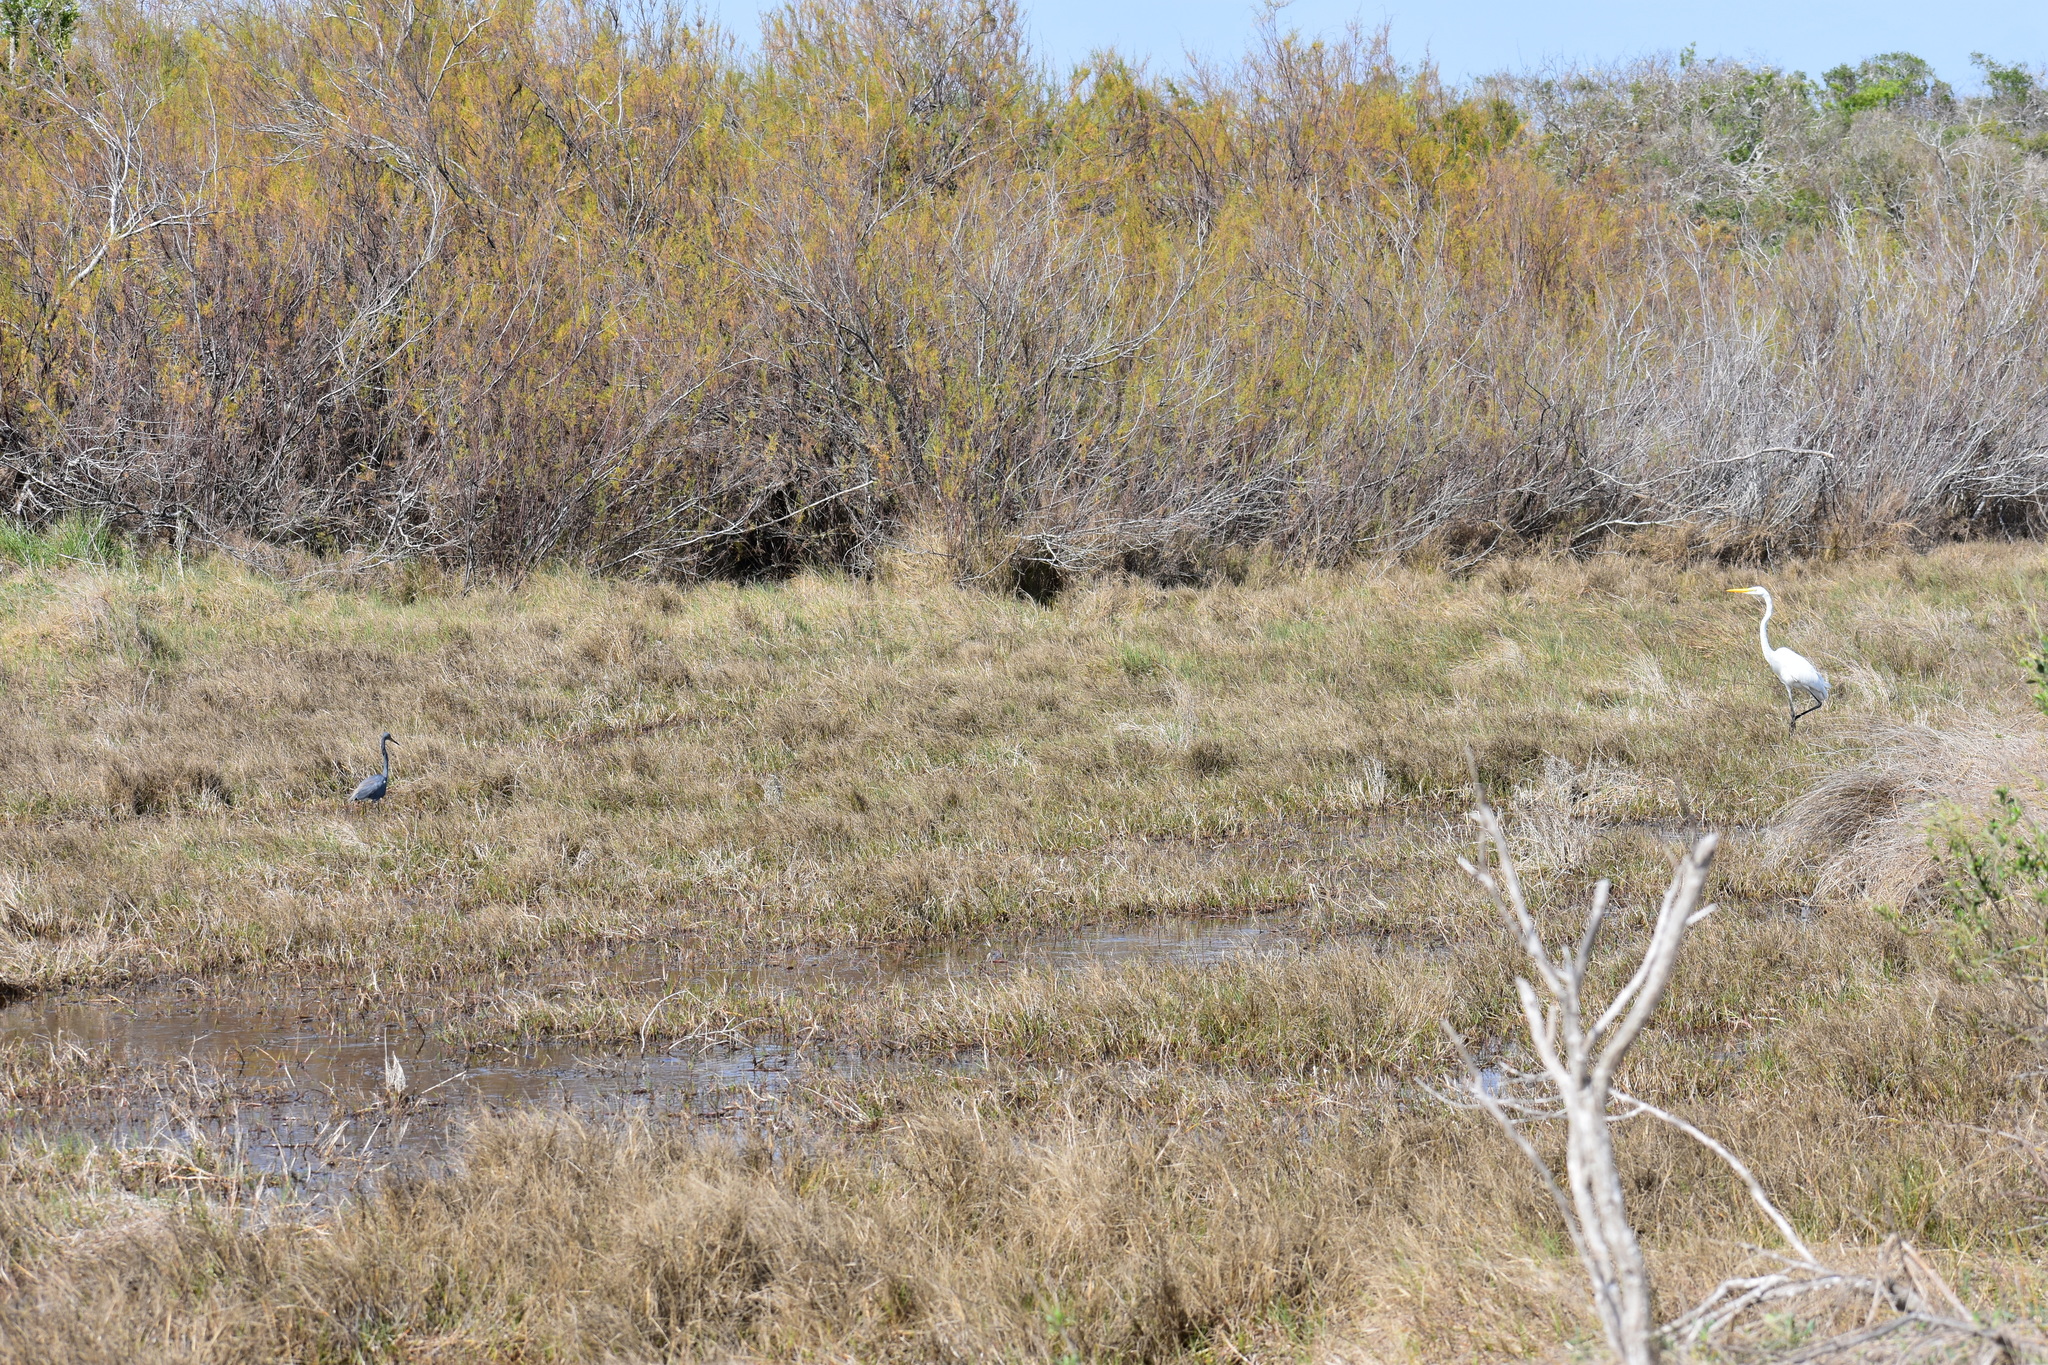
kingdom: Animalia
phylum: Chordata
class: Aves
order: Pelecaniformes
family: Ardeidae
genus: Ardea
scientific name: Ardea alba
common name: Great egret
